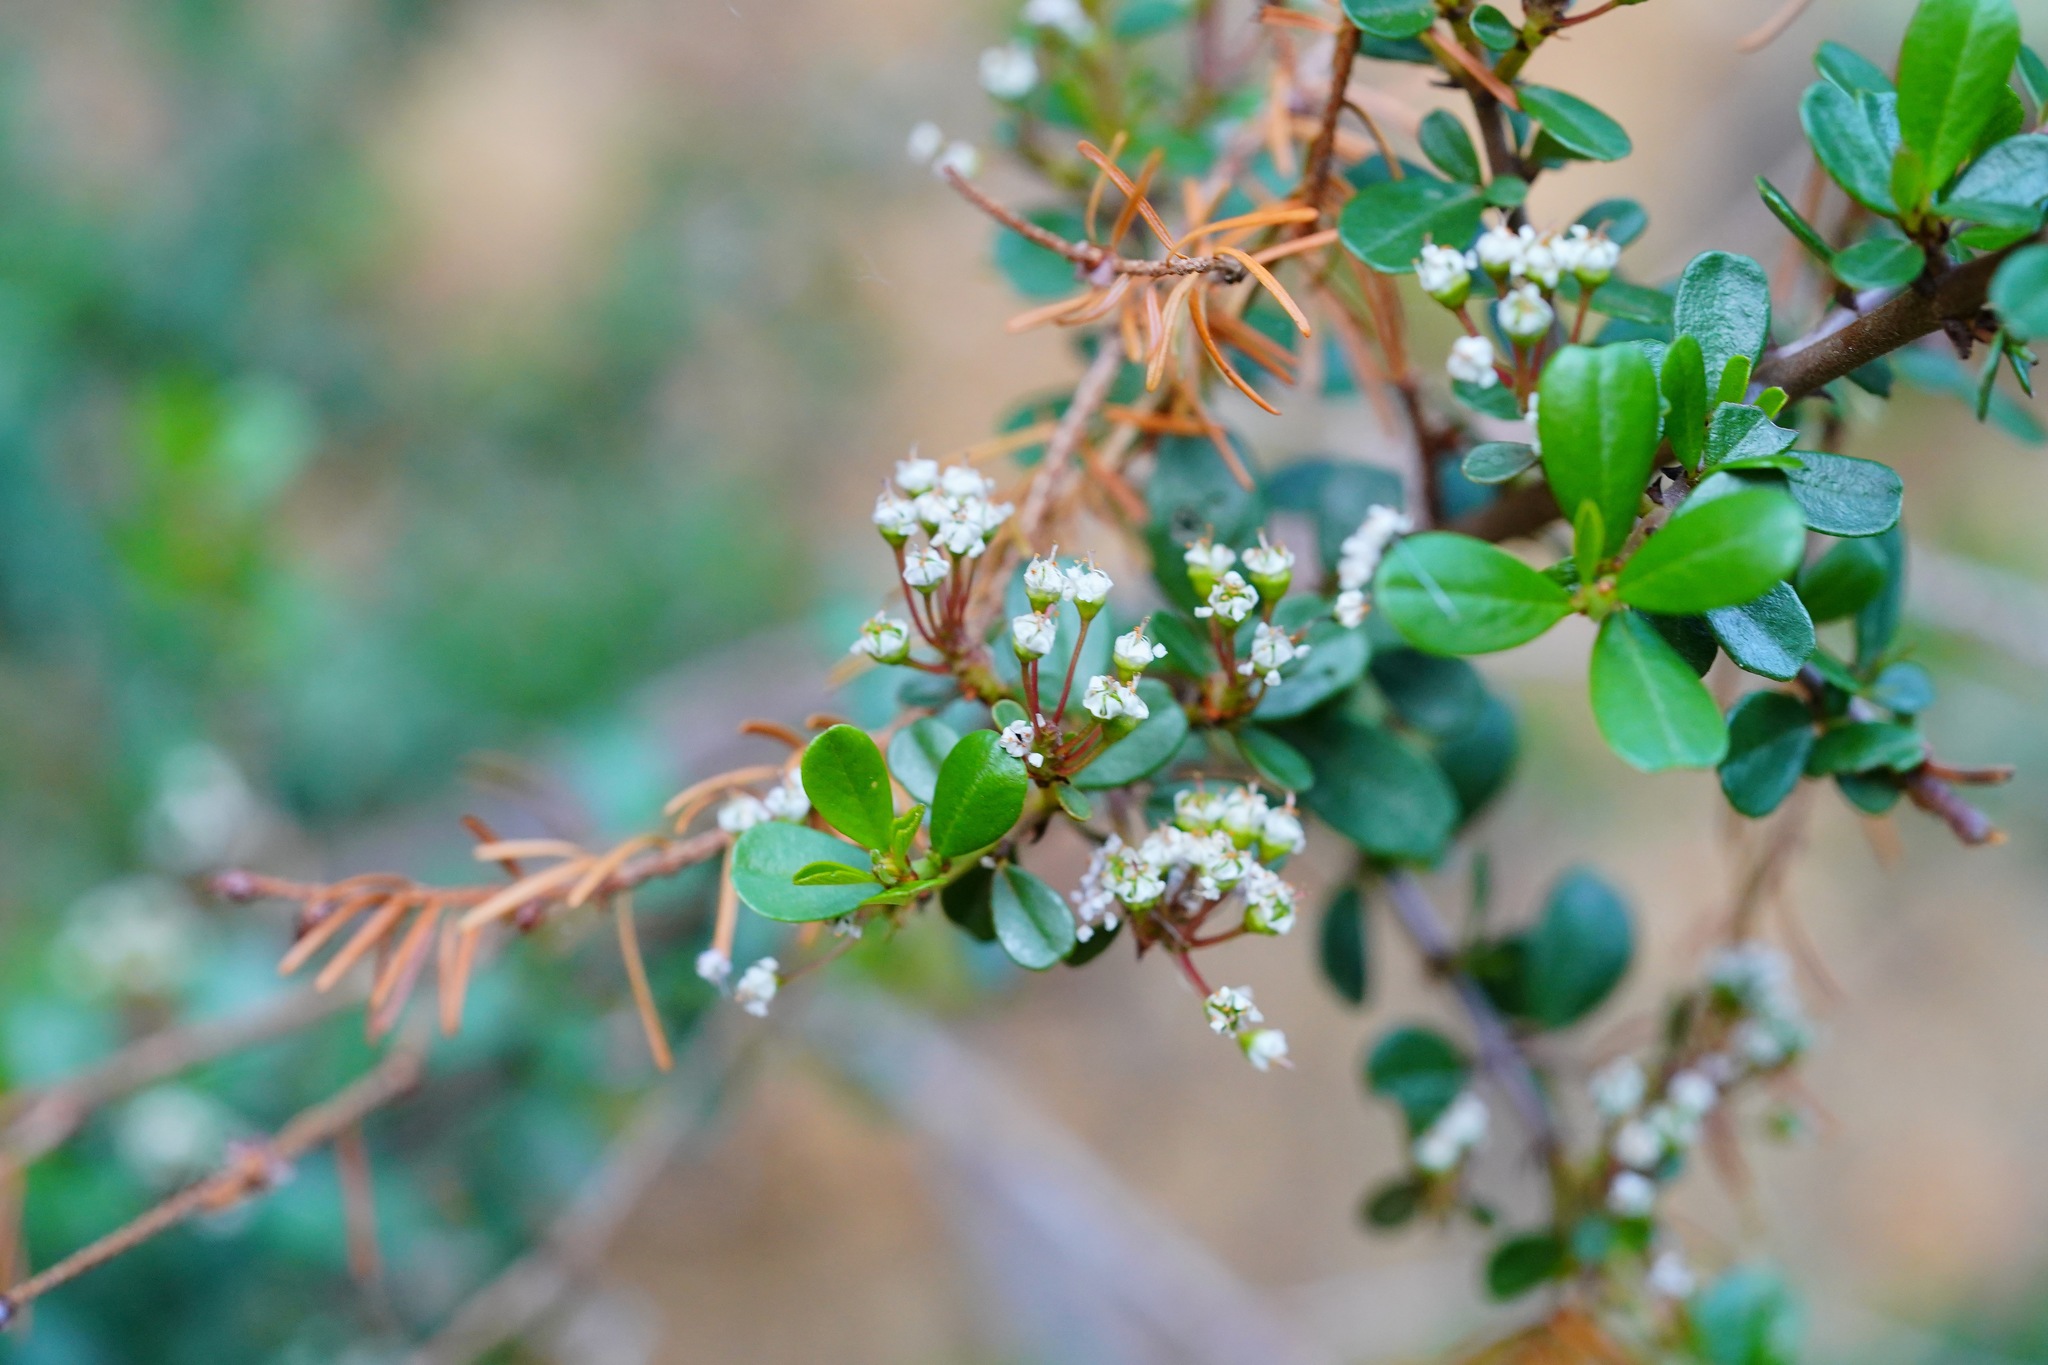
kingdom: Plantae
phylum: Tracheophyta
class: Magnoliopsida
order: Rosales
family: Rhamnaceae
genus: Ceanothus
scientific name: Ceanothus cuneatus
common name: Cuneate ceanothus
